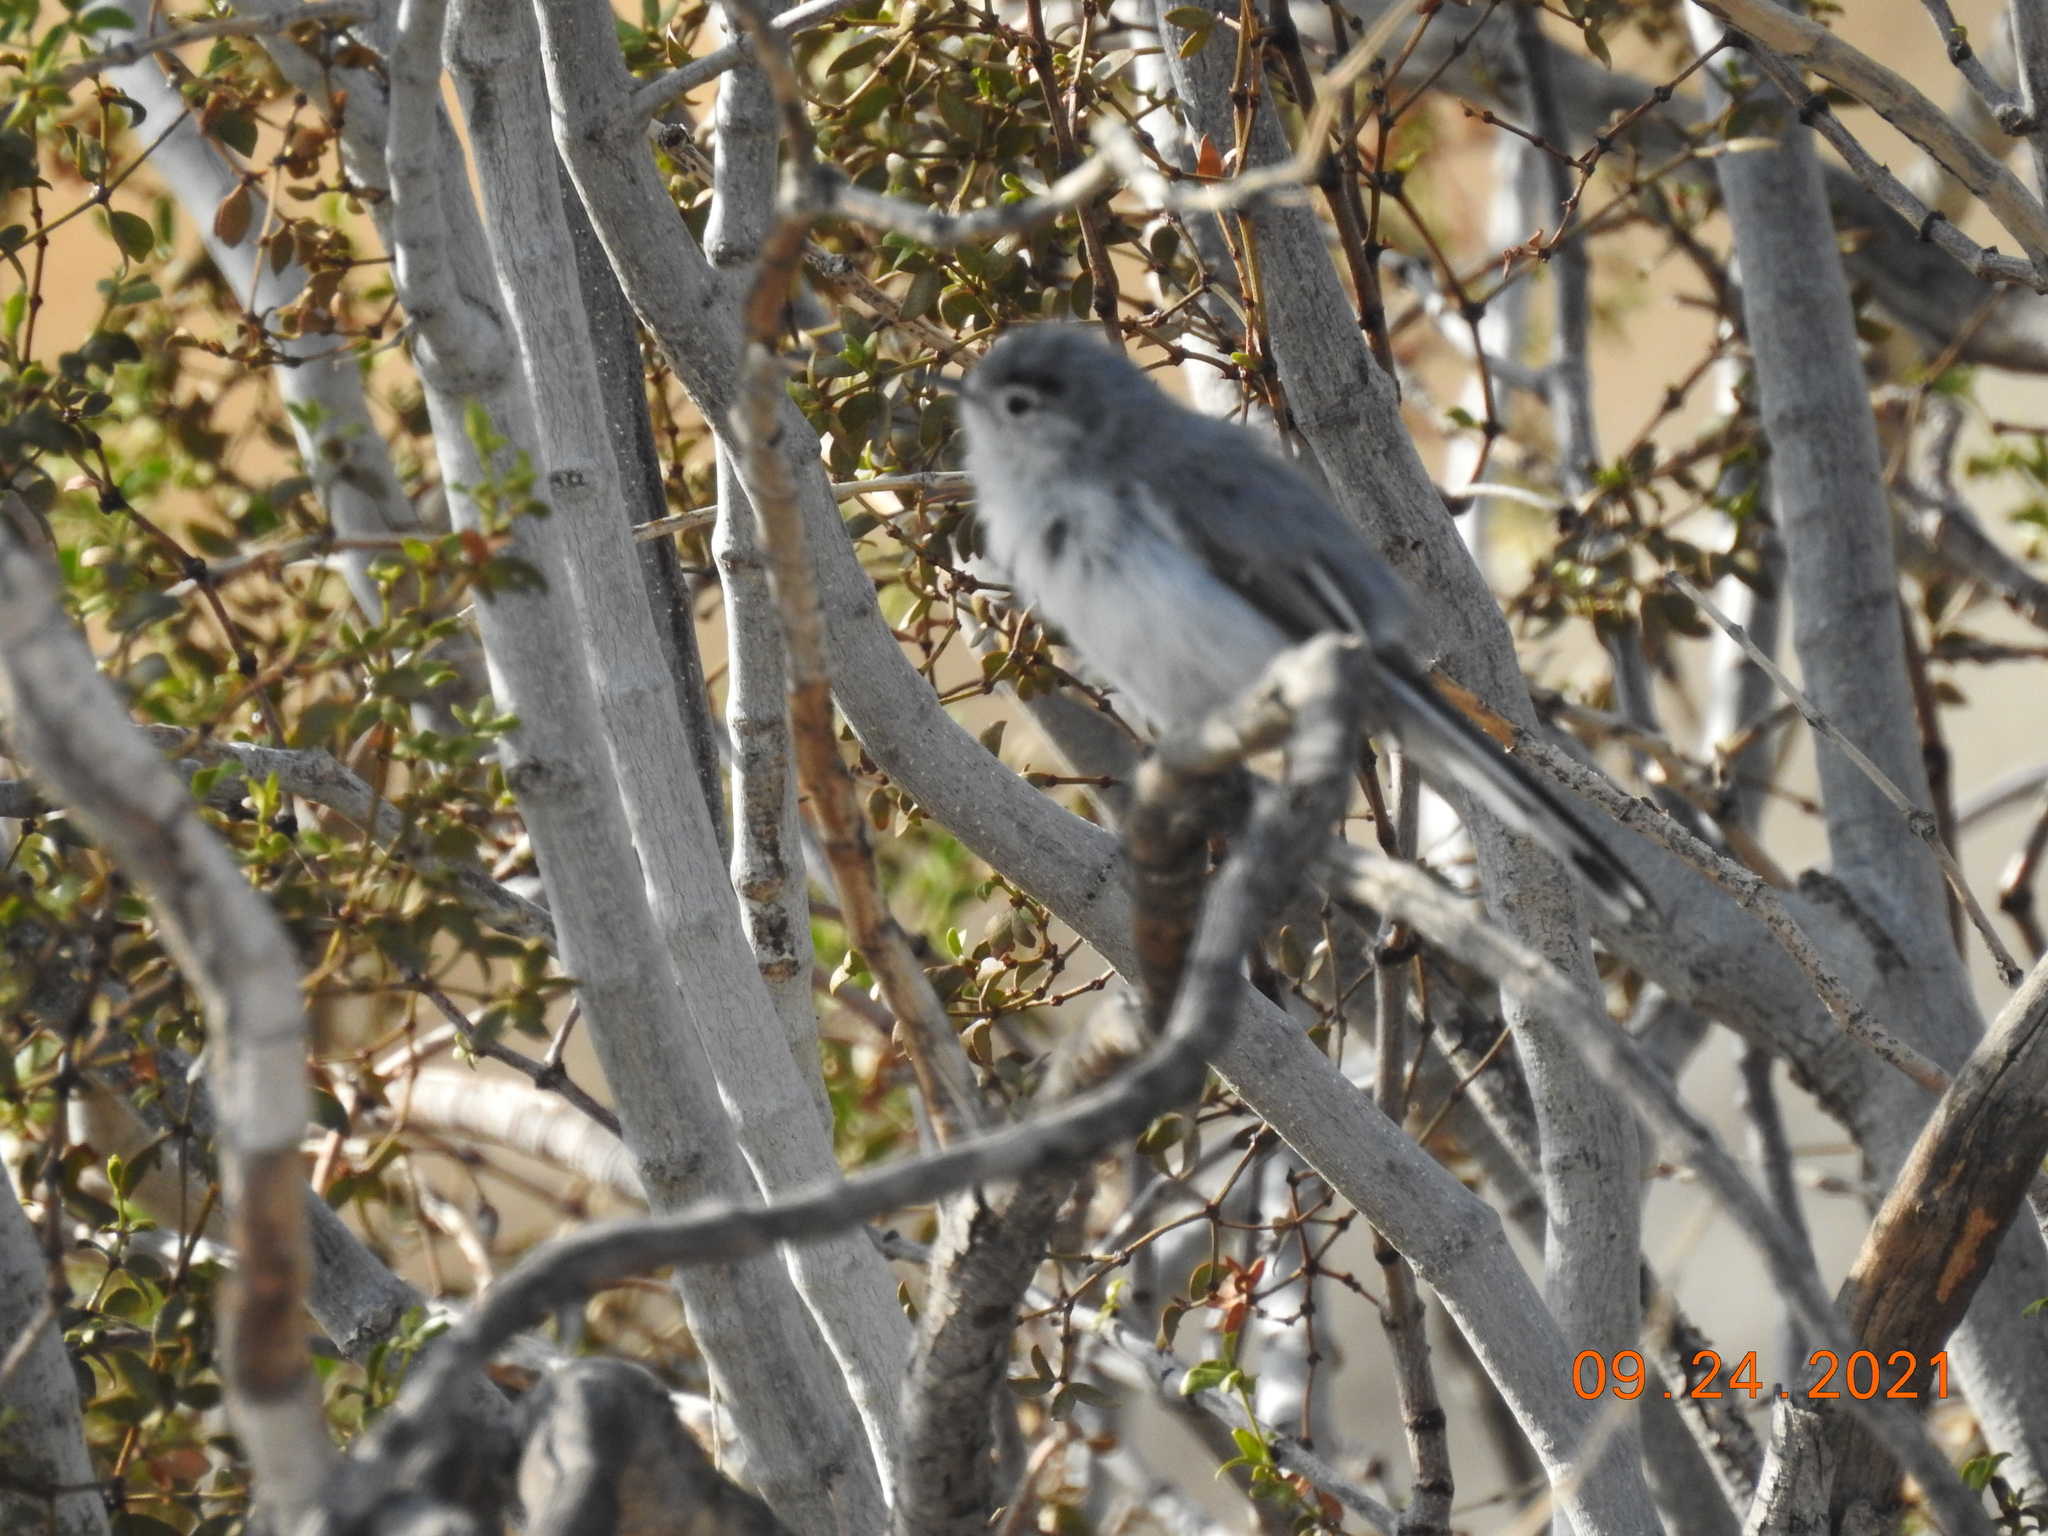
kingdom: Animalia
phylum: Chordata
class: Aves
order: Passeriformes
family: Polioptilidae
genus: Polioptila
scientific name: Polioptila melanura
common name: Black-tailed gnatcatcher
